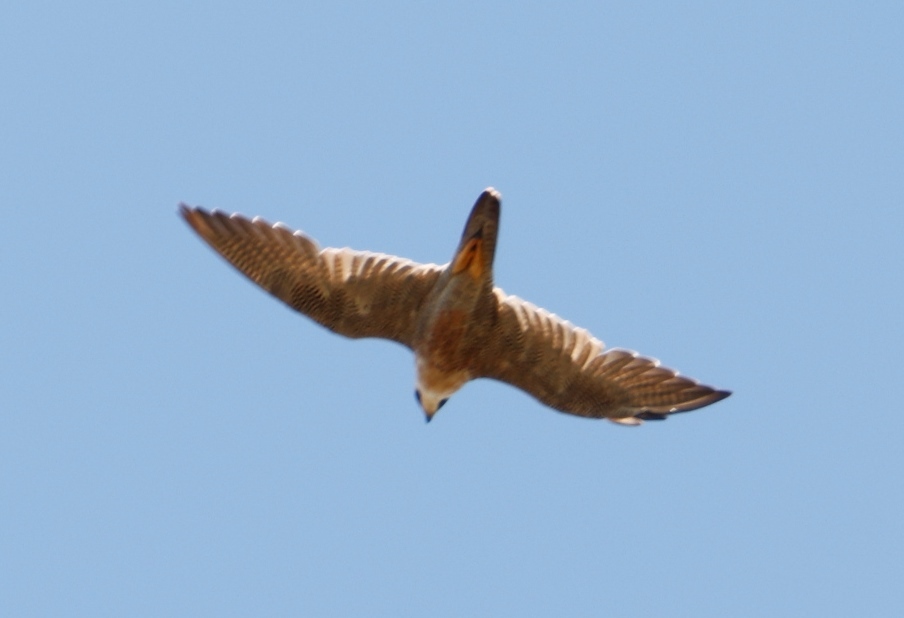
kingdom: Animalia
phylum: Chordata
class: Aves
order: Falconiformes
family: Falconidae
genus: Falco
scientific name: Falco peregrinus
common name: Peregrine falcon
